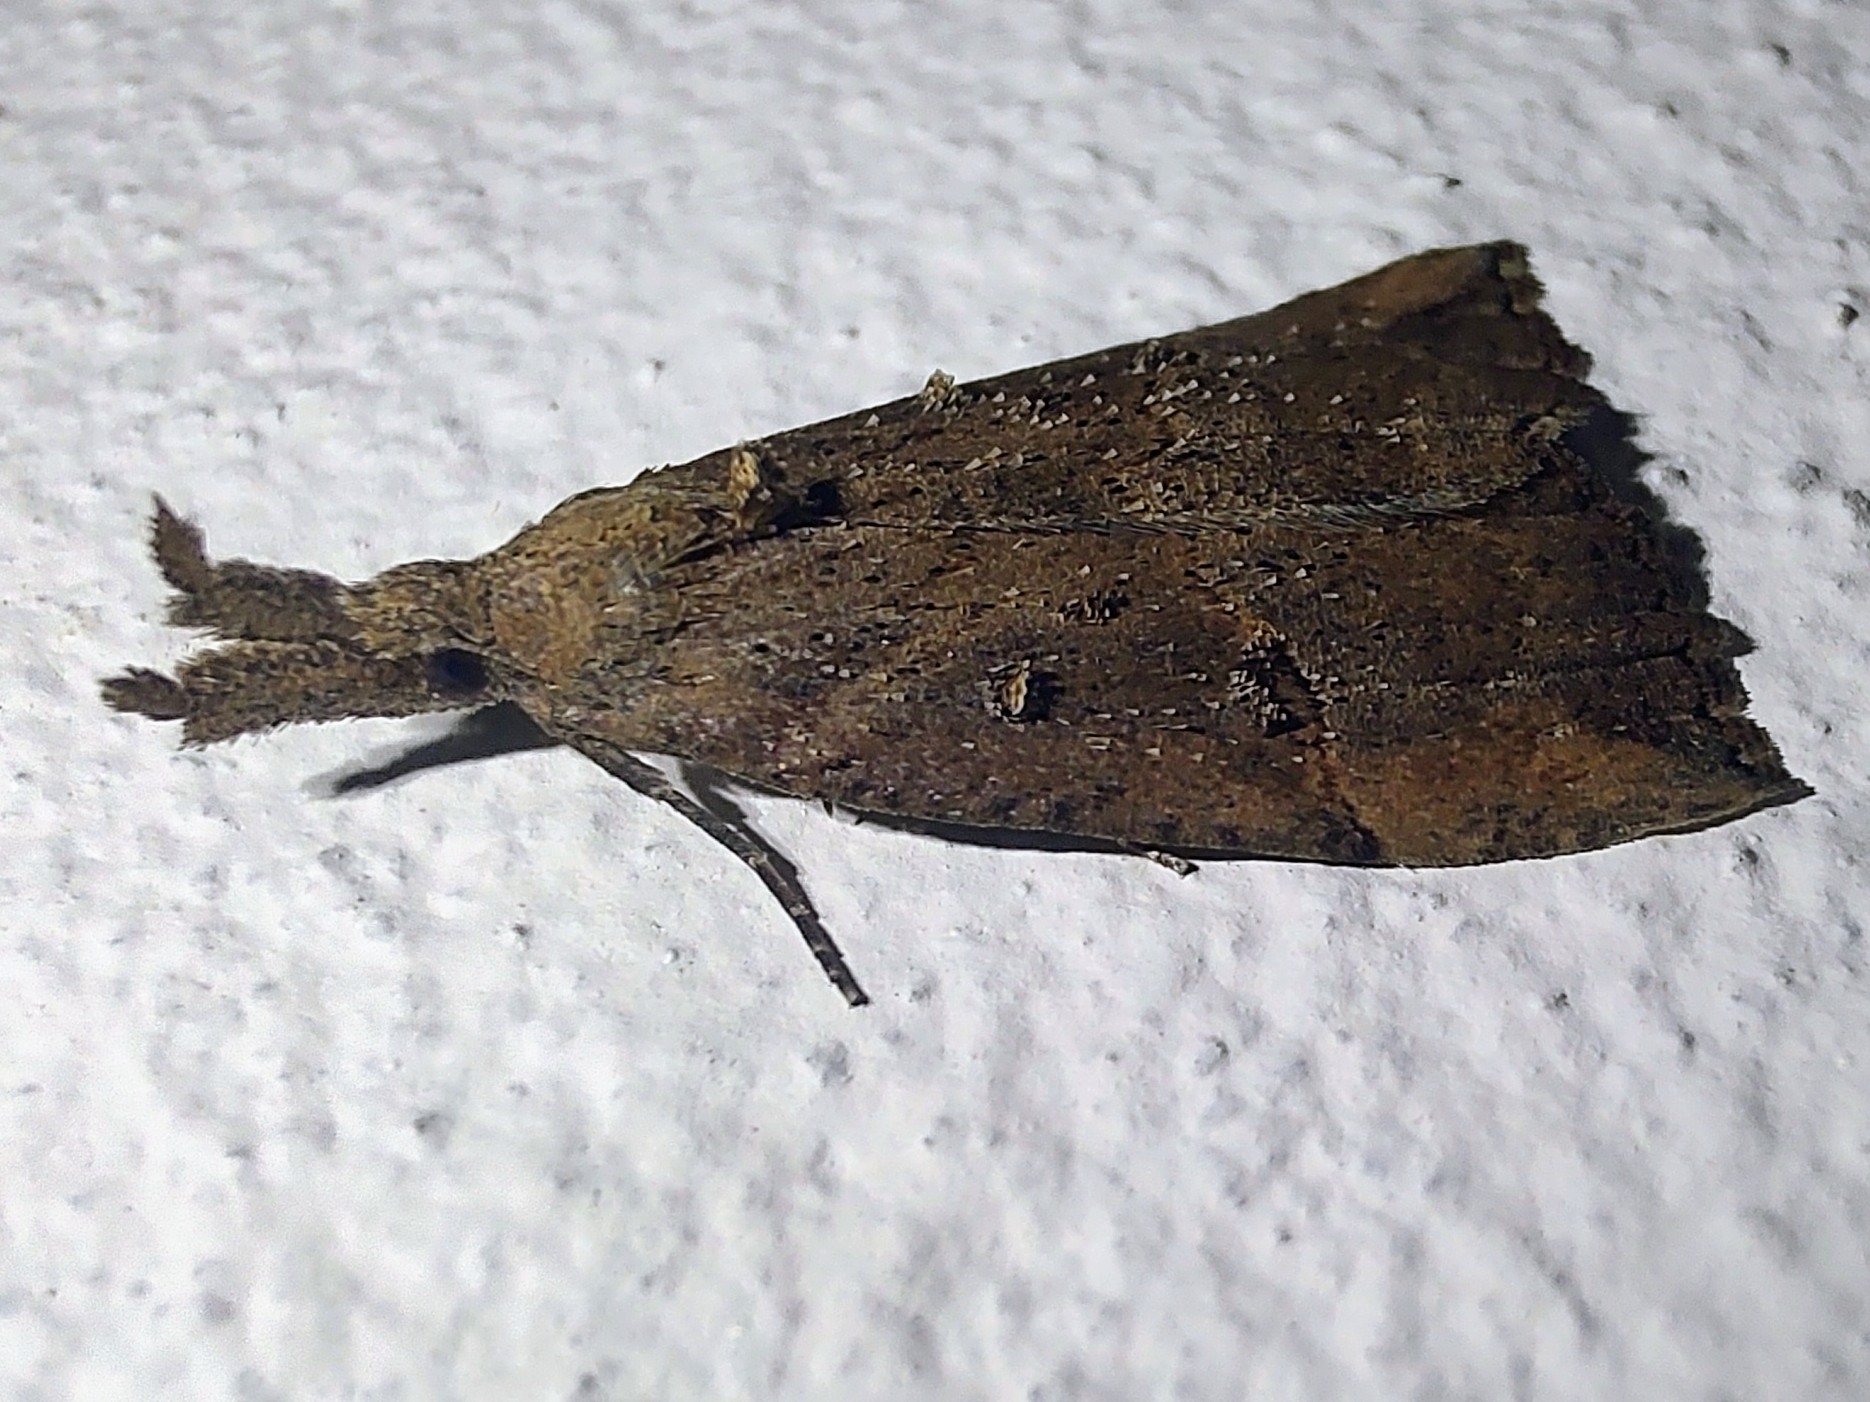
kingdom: Animalia
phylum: Arthropoda
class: Insecta
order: Lepidoptera
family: Erebidae
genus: Hypena
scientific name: Hypena rostralis
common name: Buttoned snout
